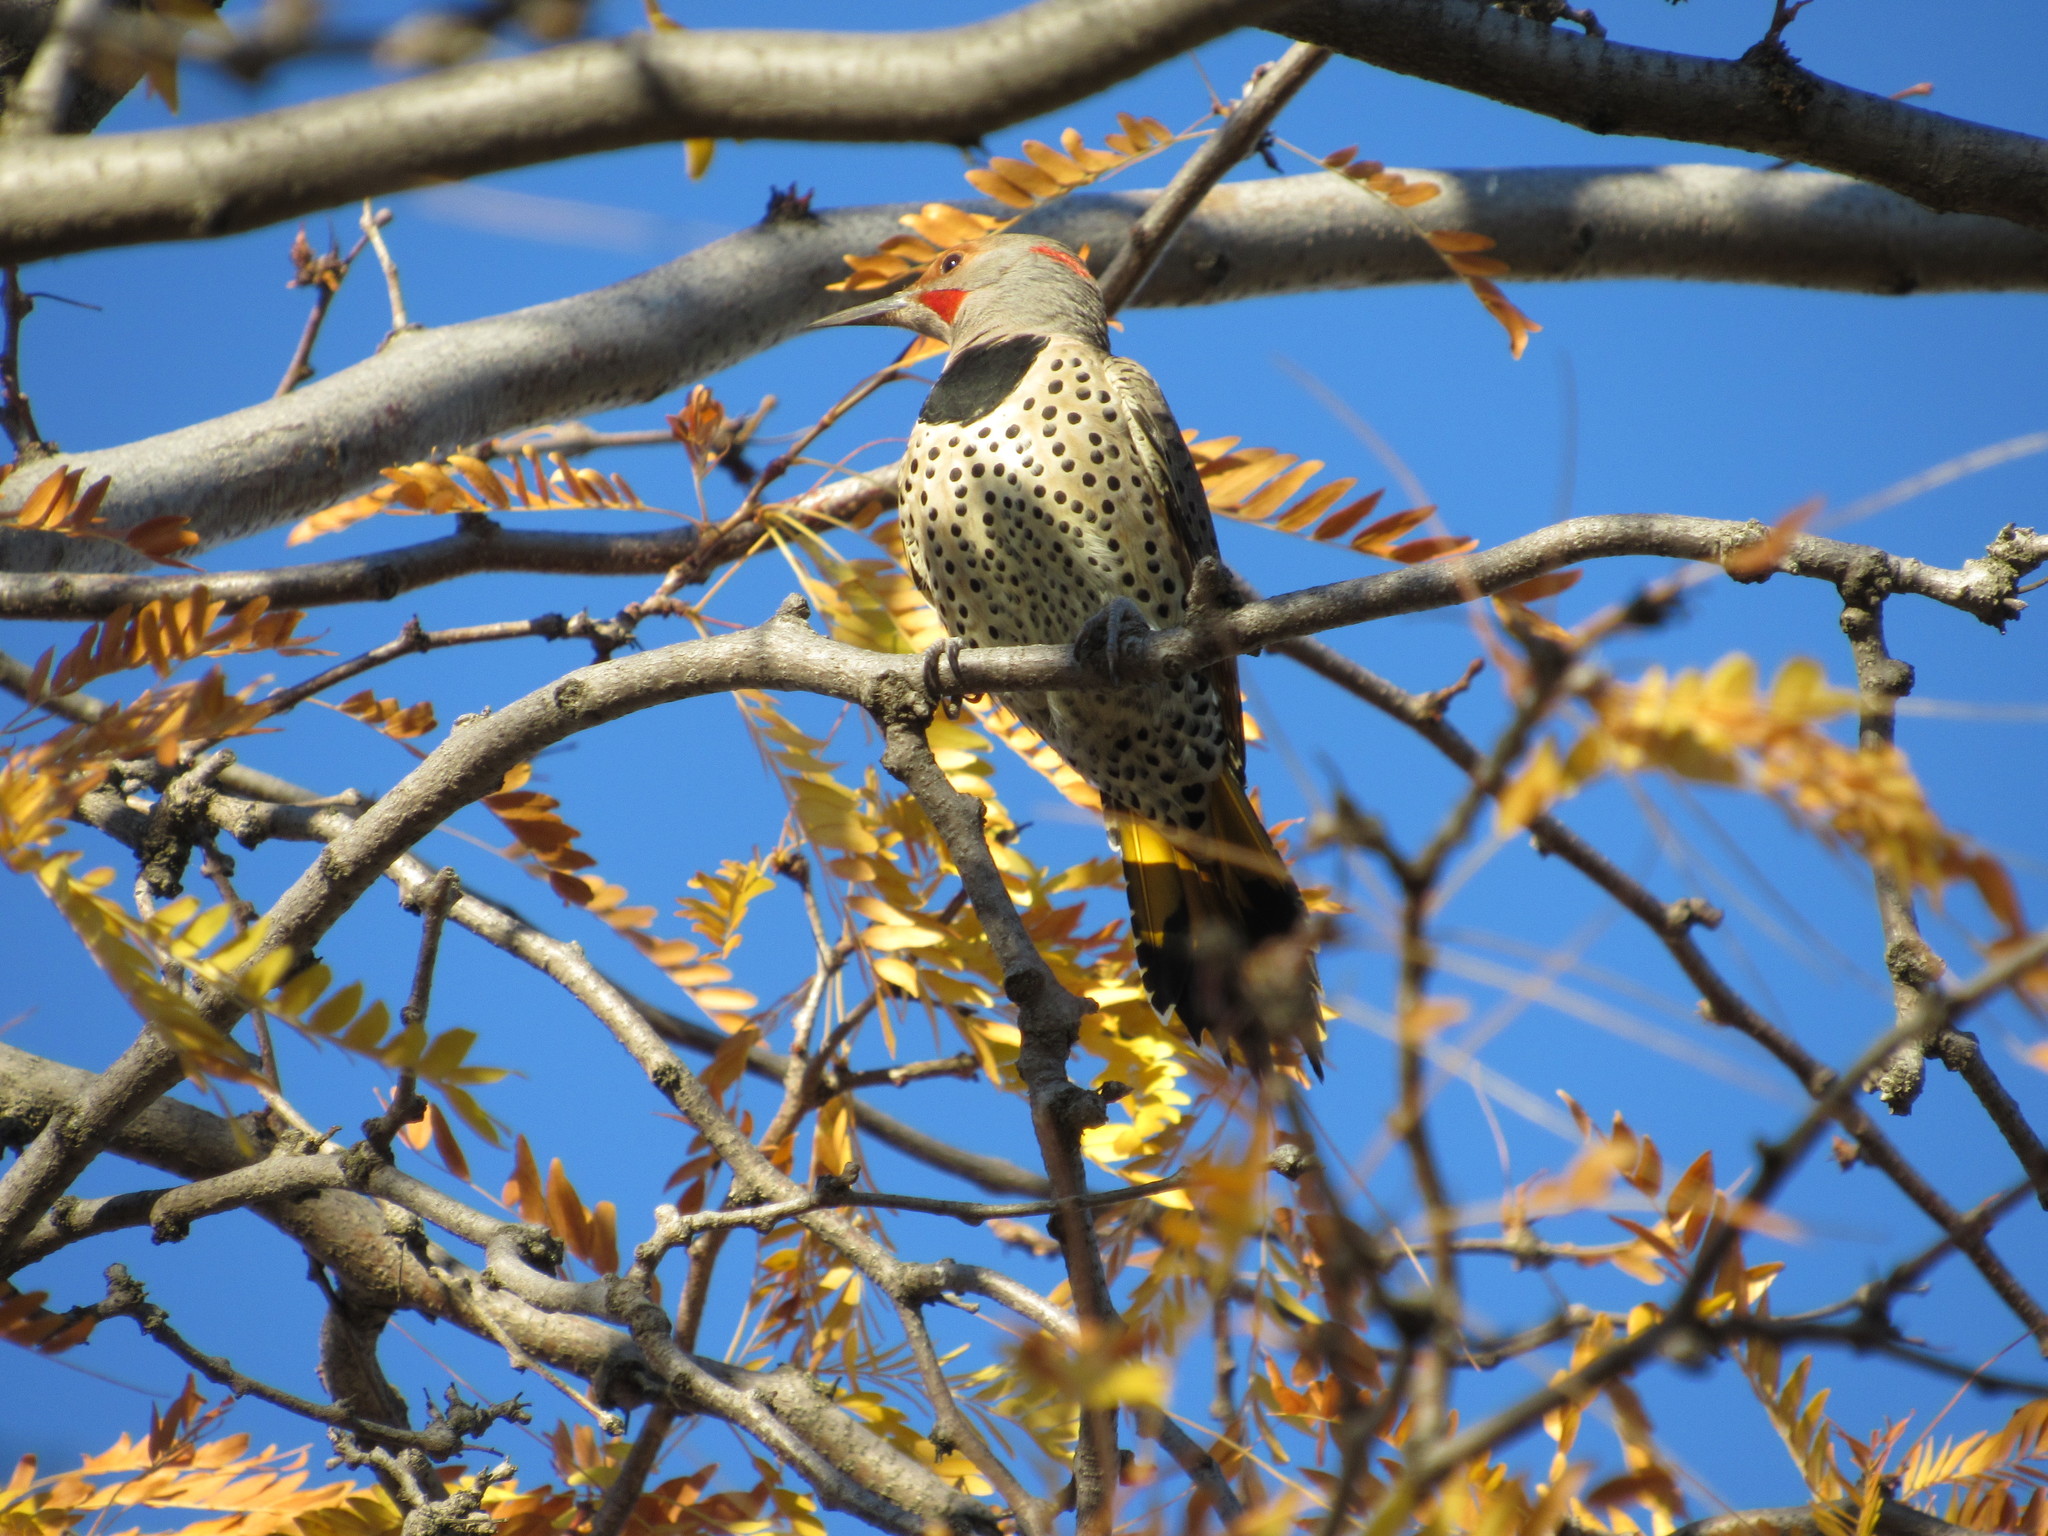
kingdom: Animalia
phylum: Chordata
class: Aves
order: Piciformes
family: Picidae
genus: Colaptes
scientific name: Colaptes
